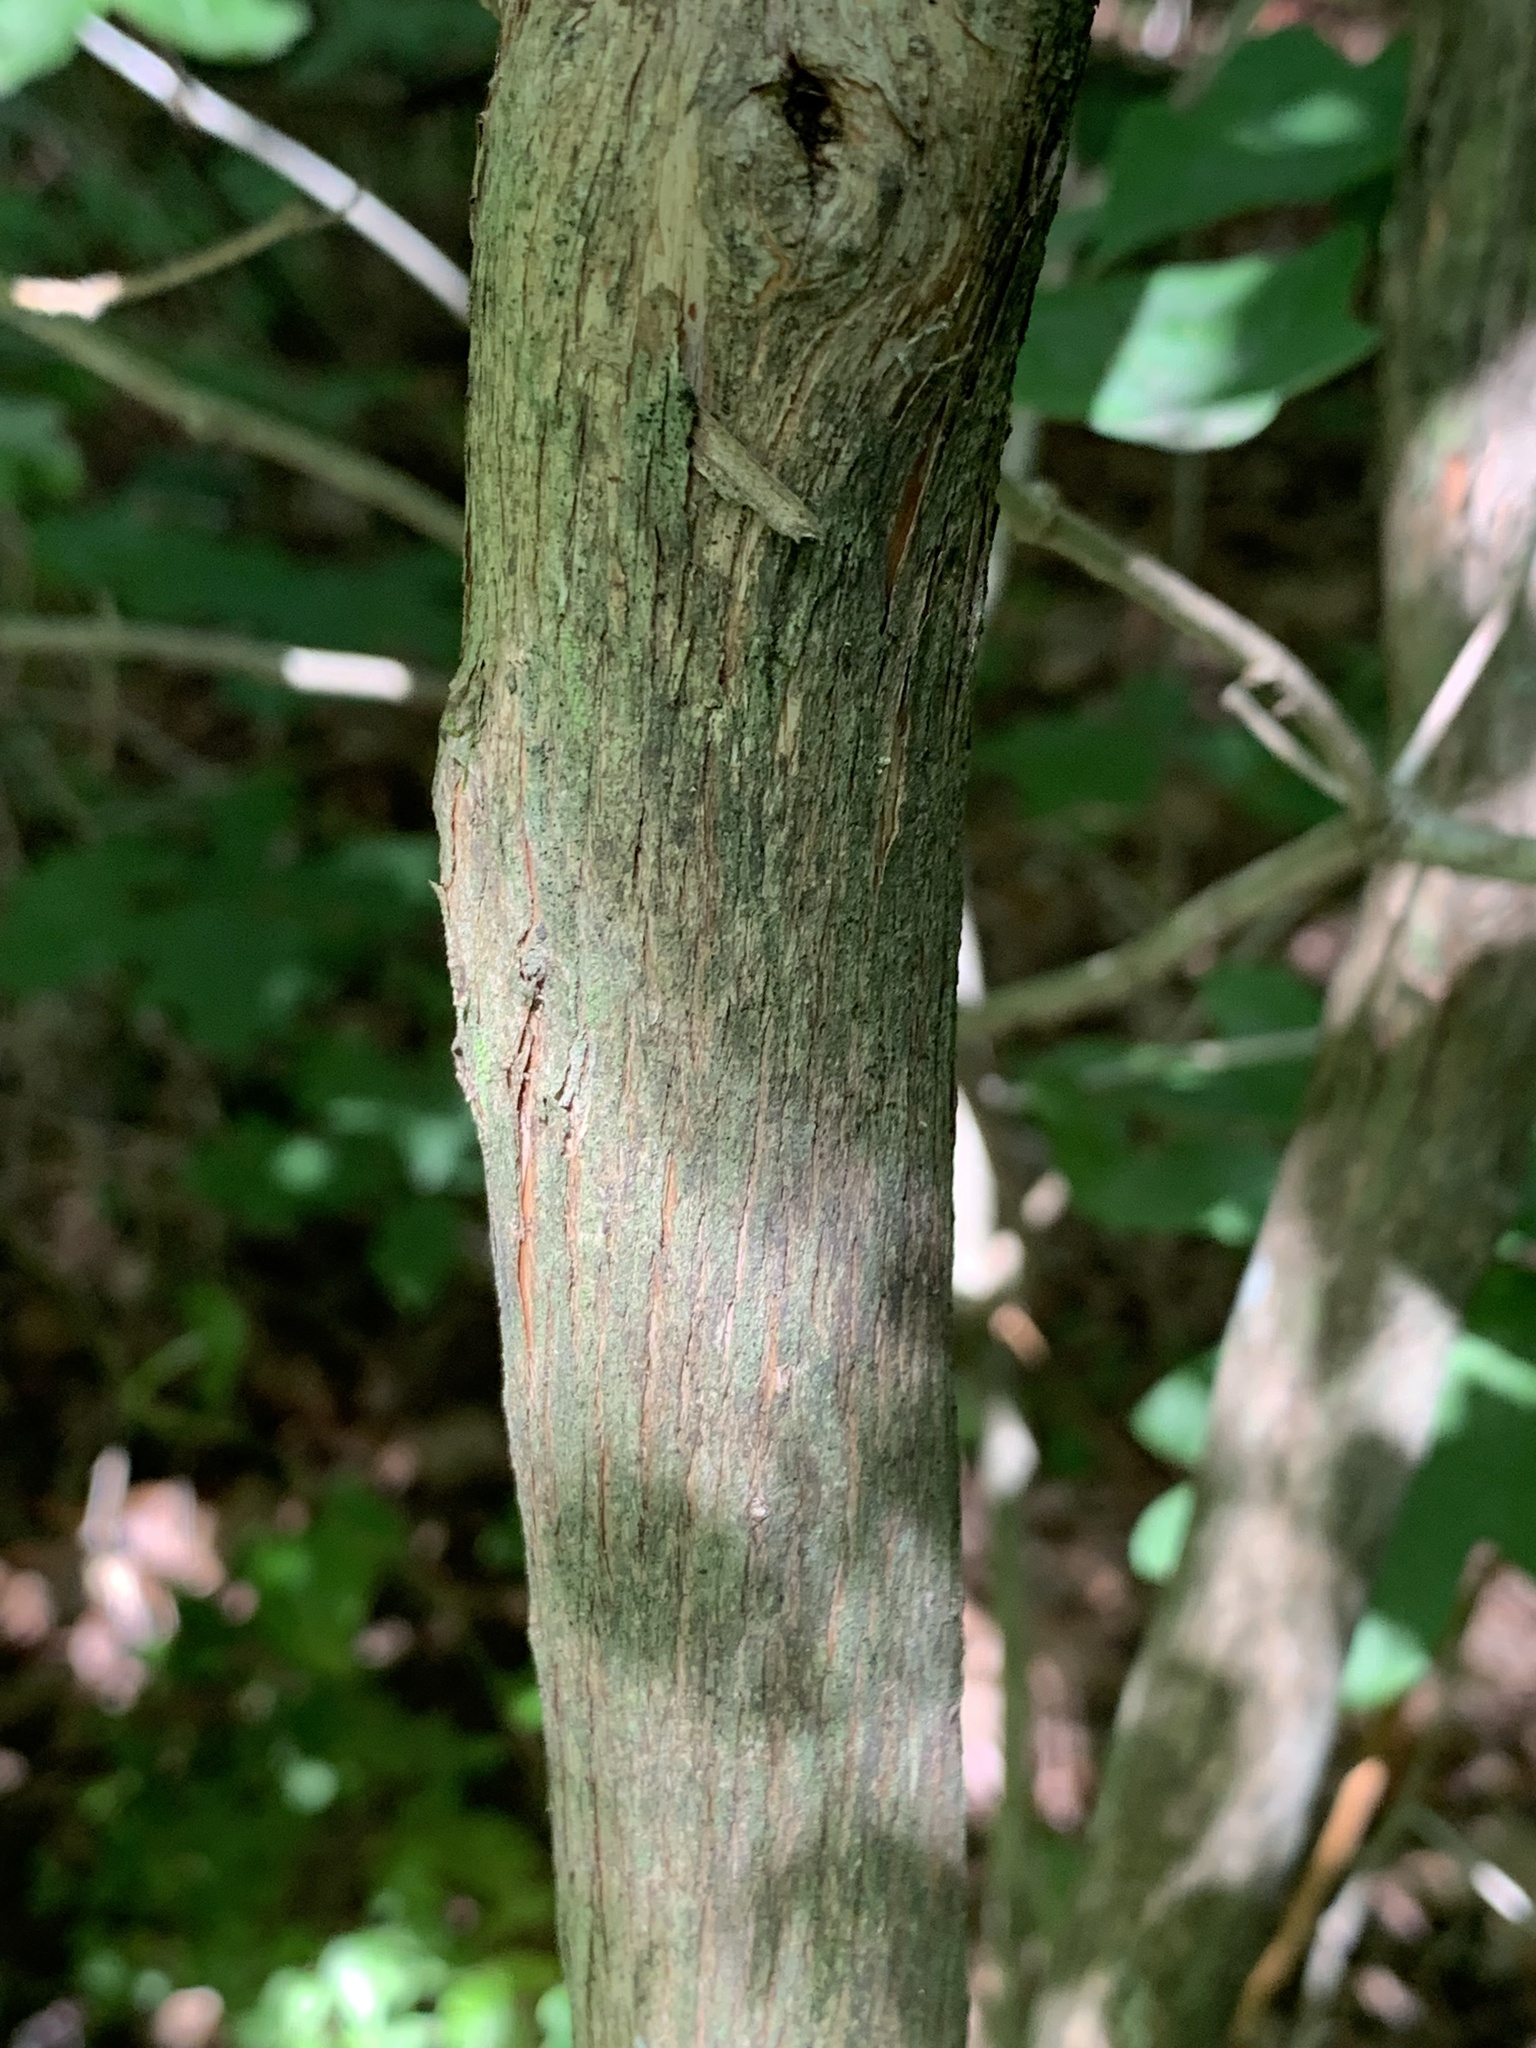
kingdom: Plantae
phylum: Tracheophyta
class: Magnoliopsida
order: Ericales
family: Ericaceae
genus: Lyonia
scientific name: Lyonia ligustrina
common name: Maleberry
